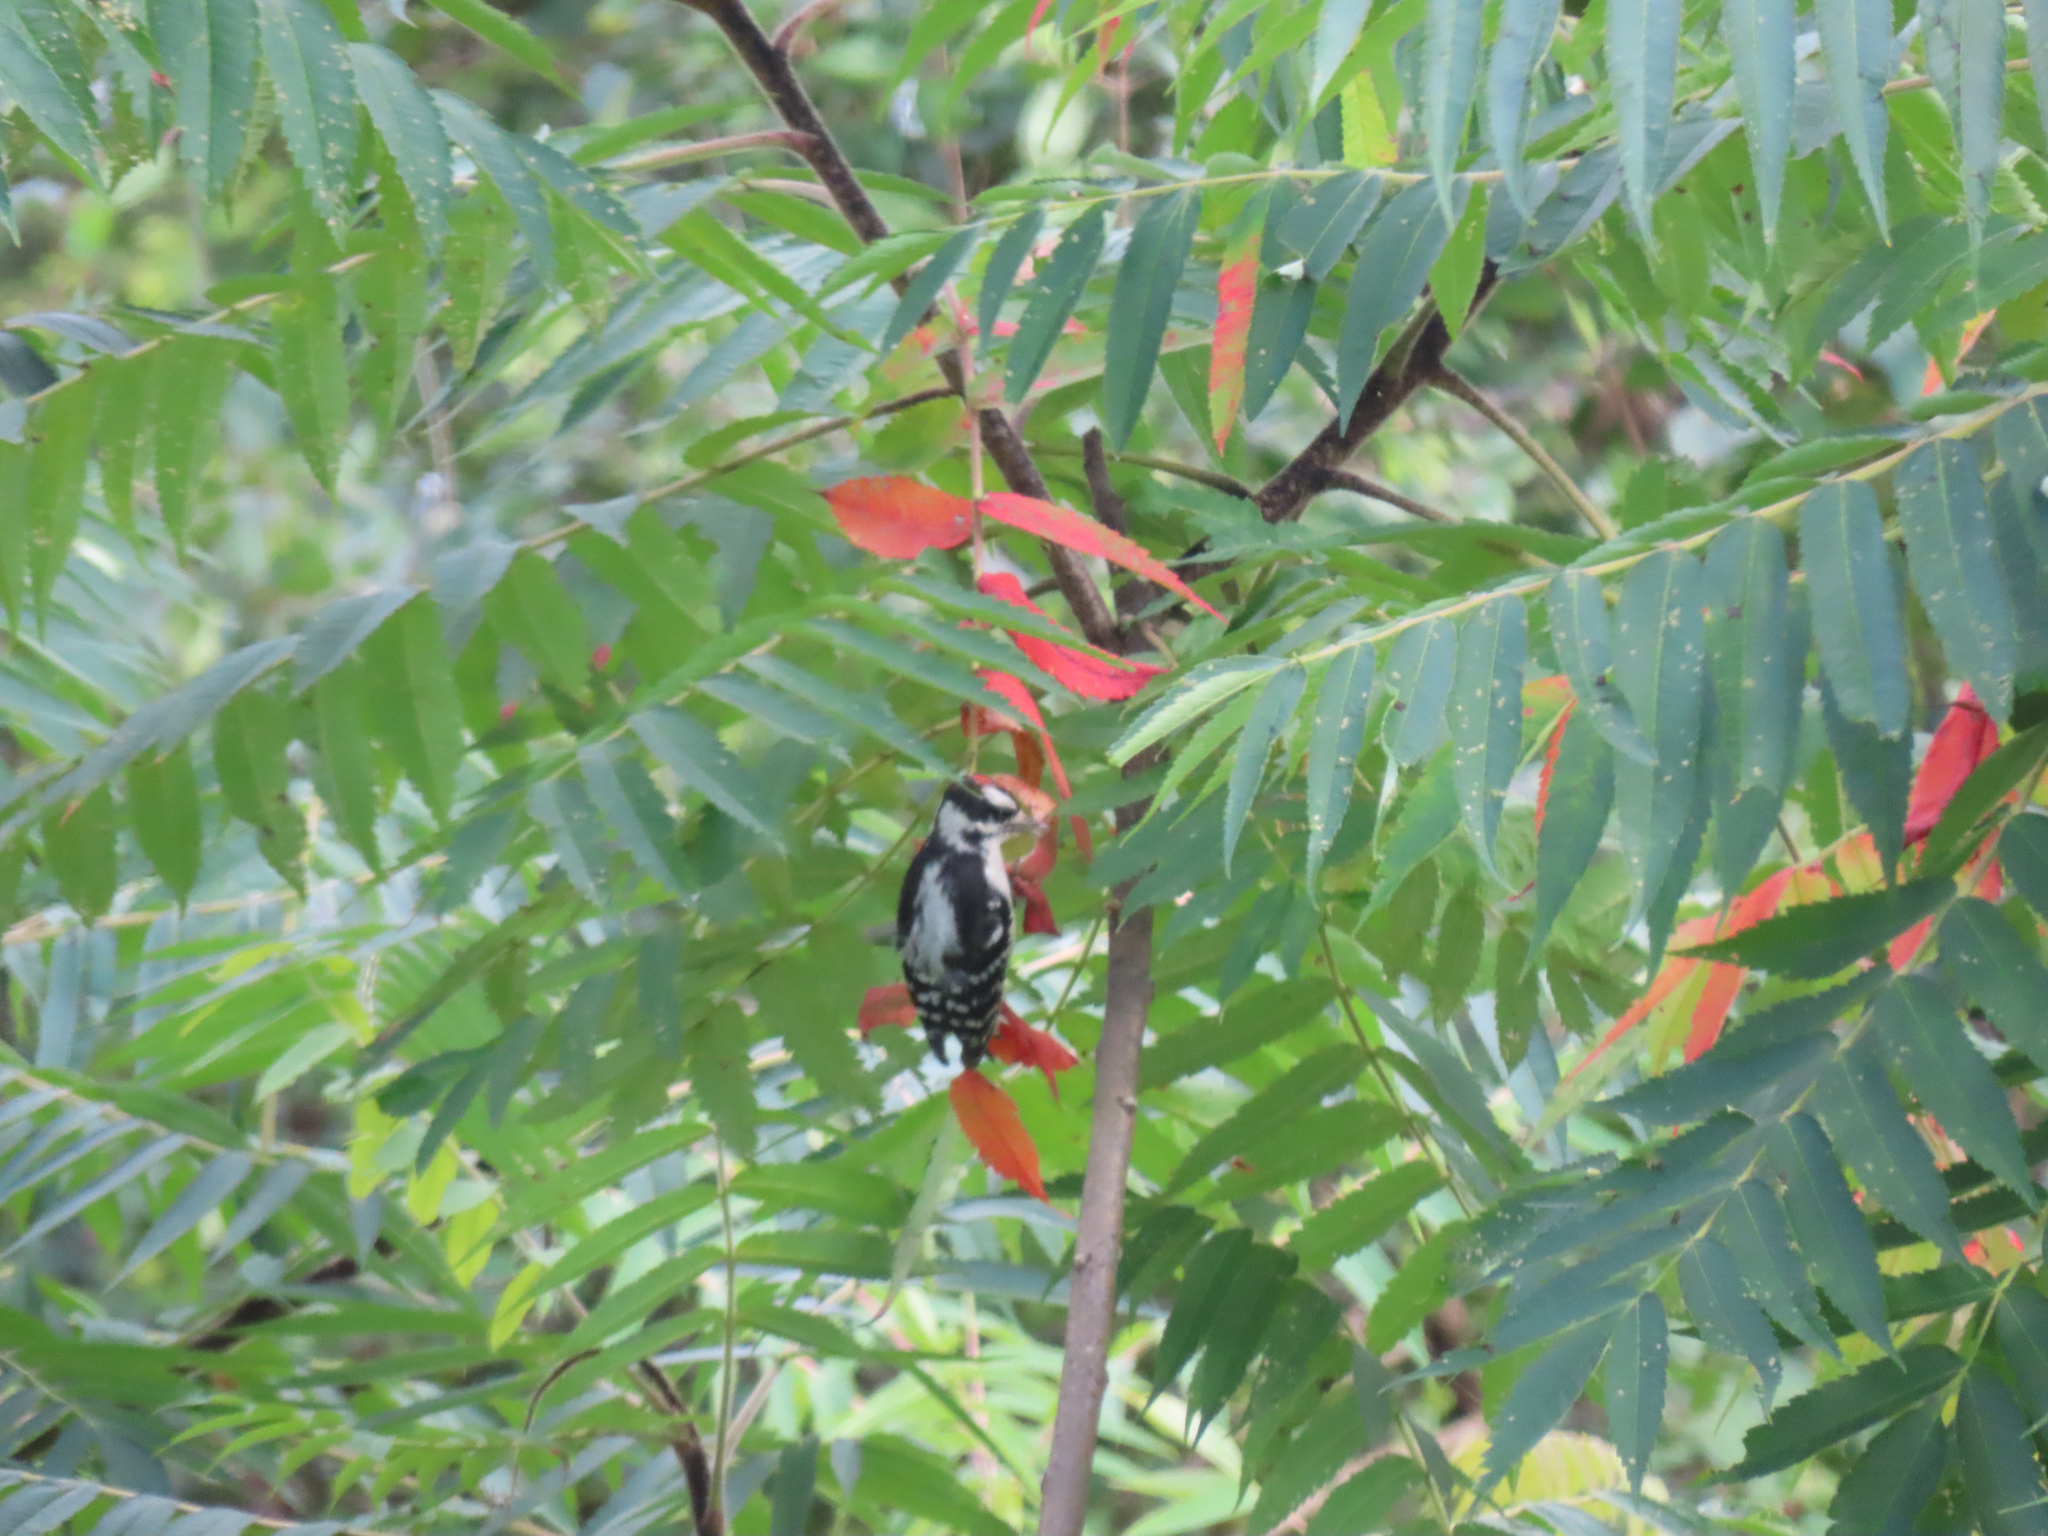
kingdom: Plantae
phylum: Tracheophyta
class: Magnoliopsida
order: Sapindales
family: Anacardiaceae
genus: Rhus
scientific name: Rhus typhina
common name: Staghorn sumac
